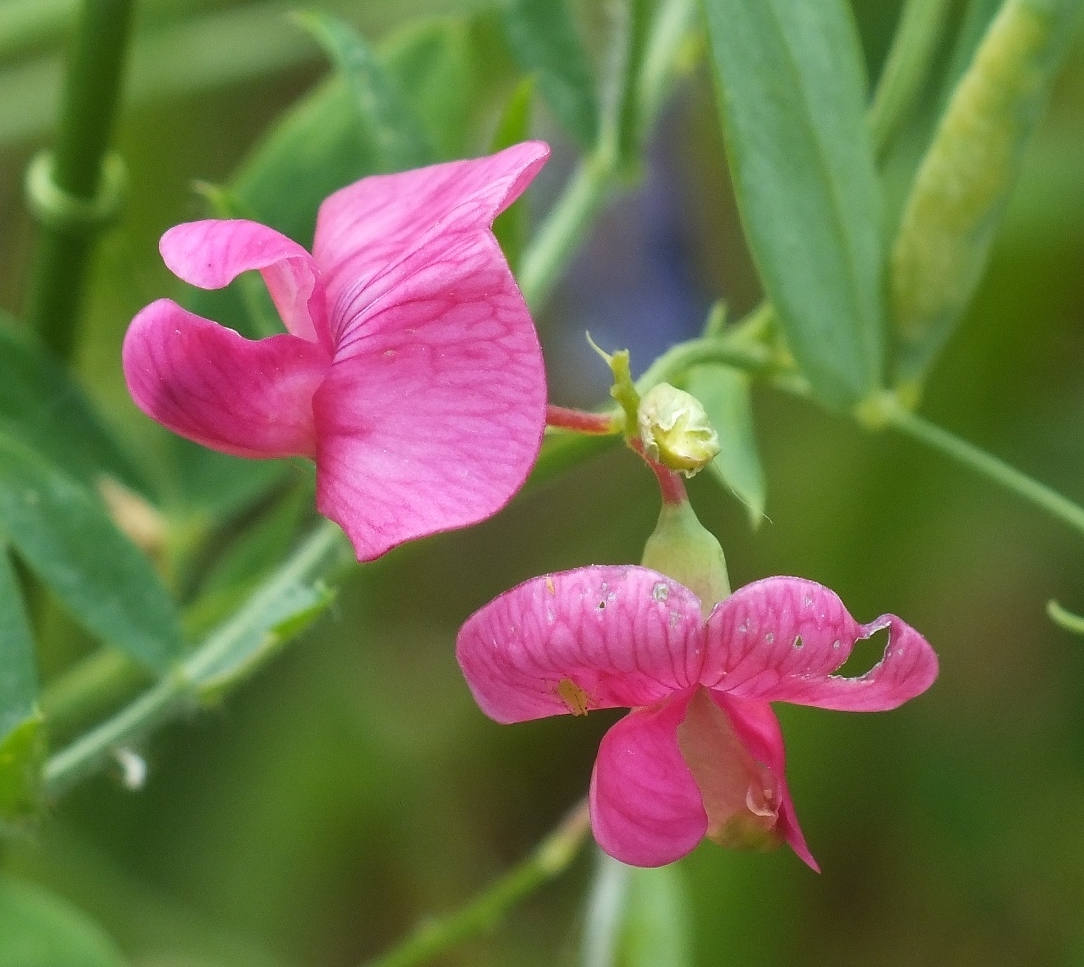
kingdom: Plantae
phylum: Tracheophyta
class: Magnoliopsida
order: Fabales
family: Fabaceae
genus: Lathyrus
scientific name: Lathyrus tuberosus
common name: Tuberous pea
